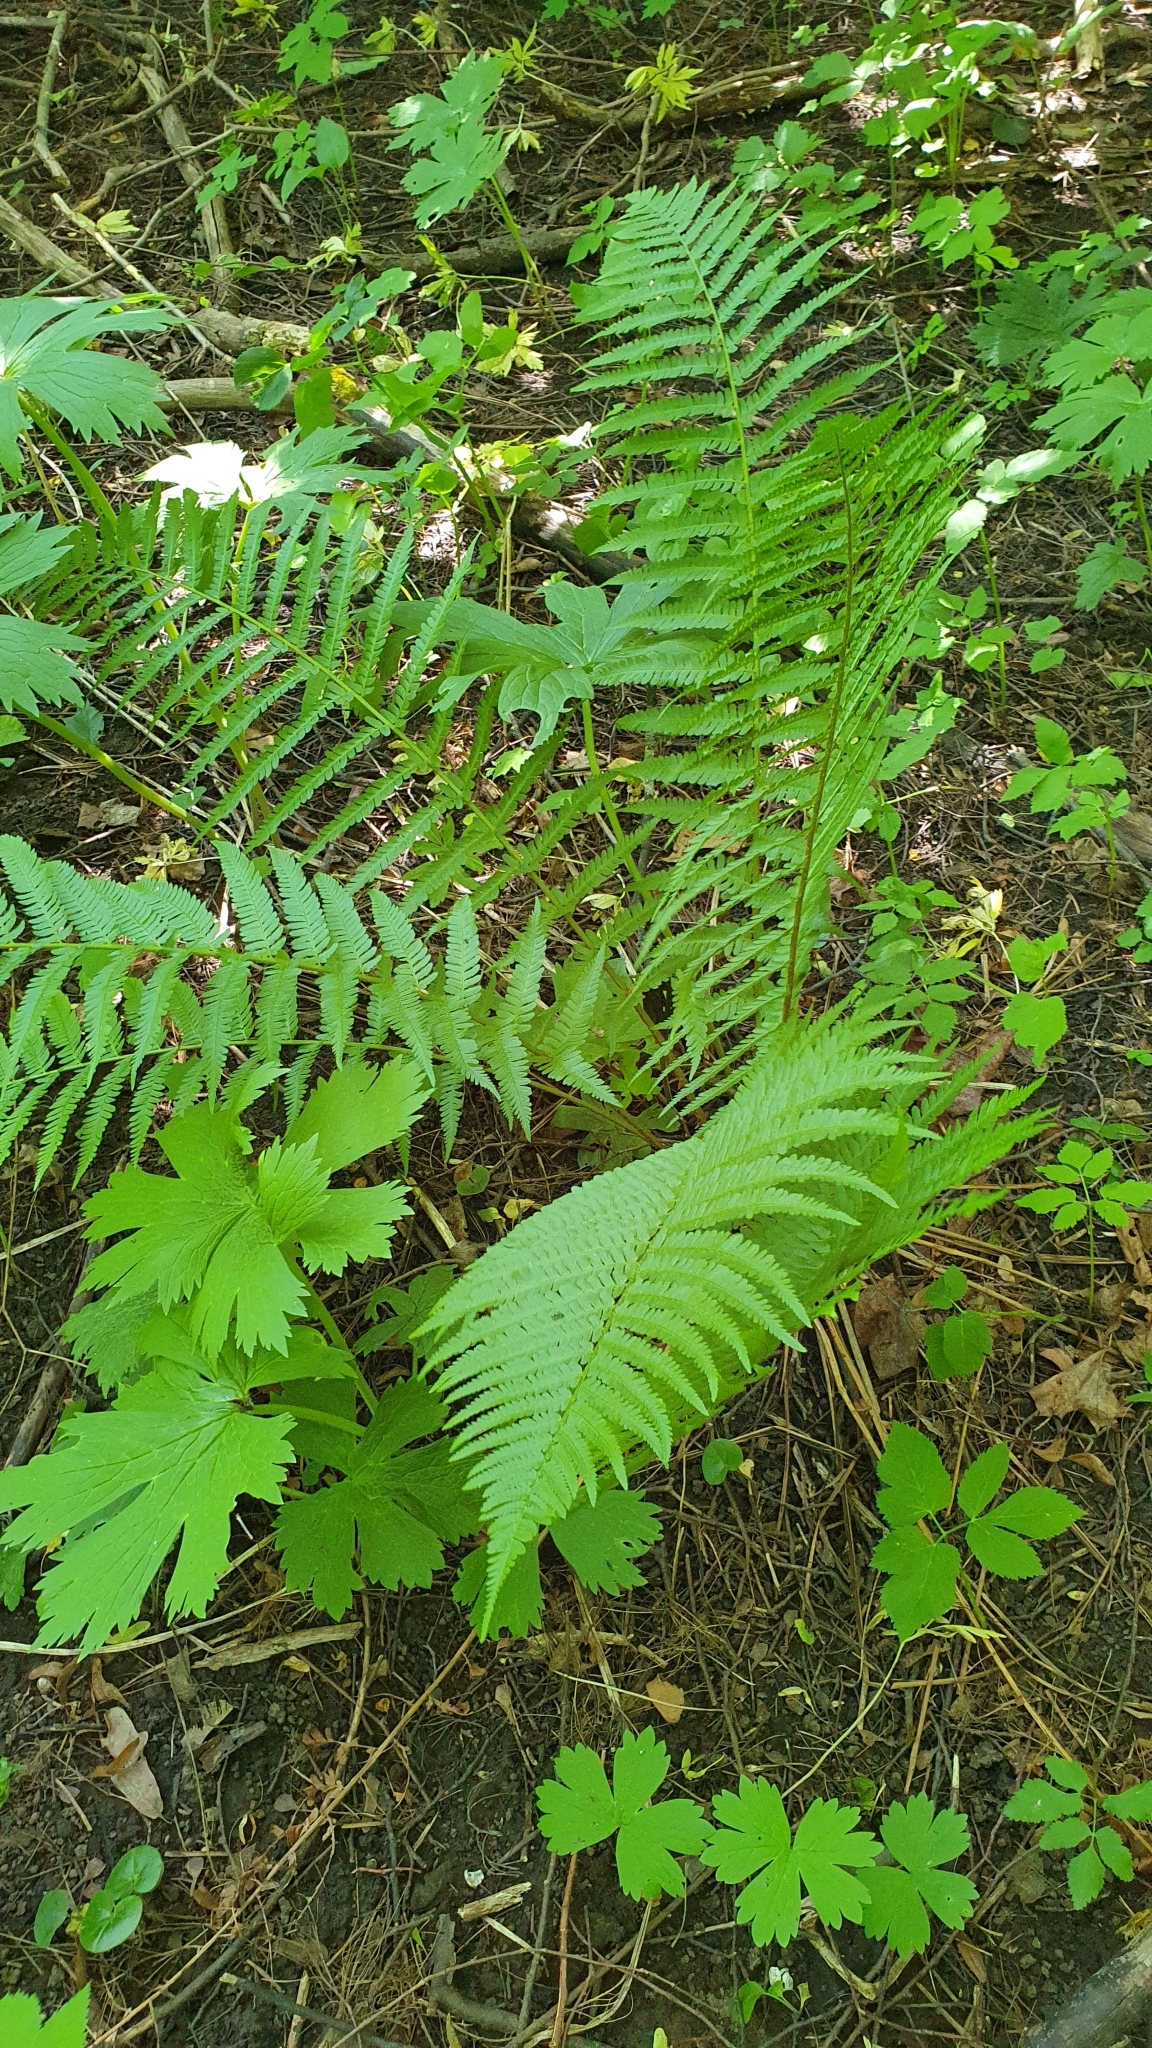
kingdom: Plantae
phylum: Tracheophyta
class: Polypodiopsida
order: Polypodiales
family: Dryopteridaceae
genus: Dryopteris
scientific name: Dryopteris filix-mas
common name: Male fern
